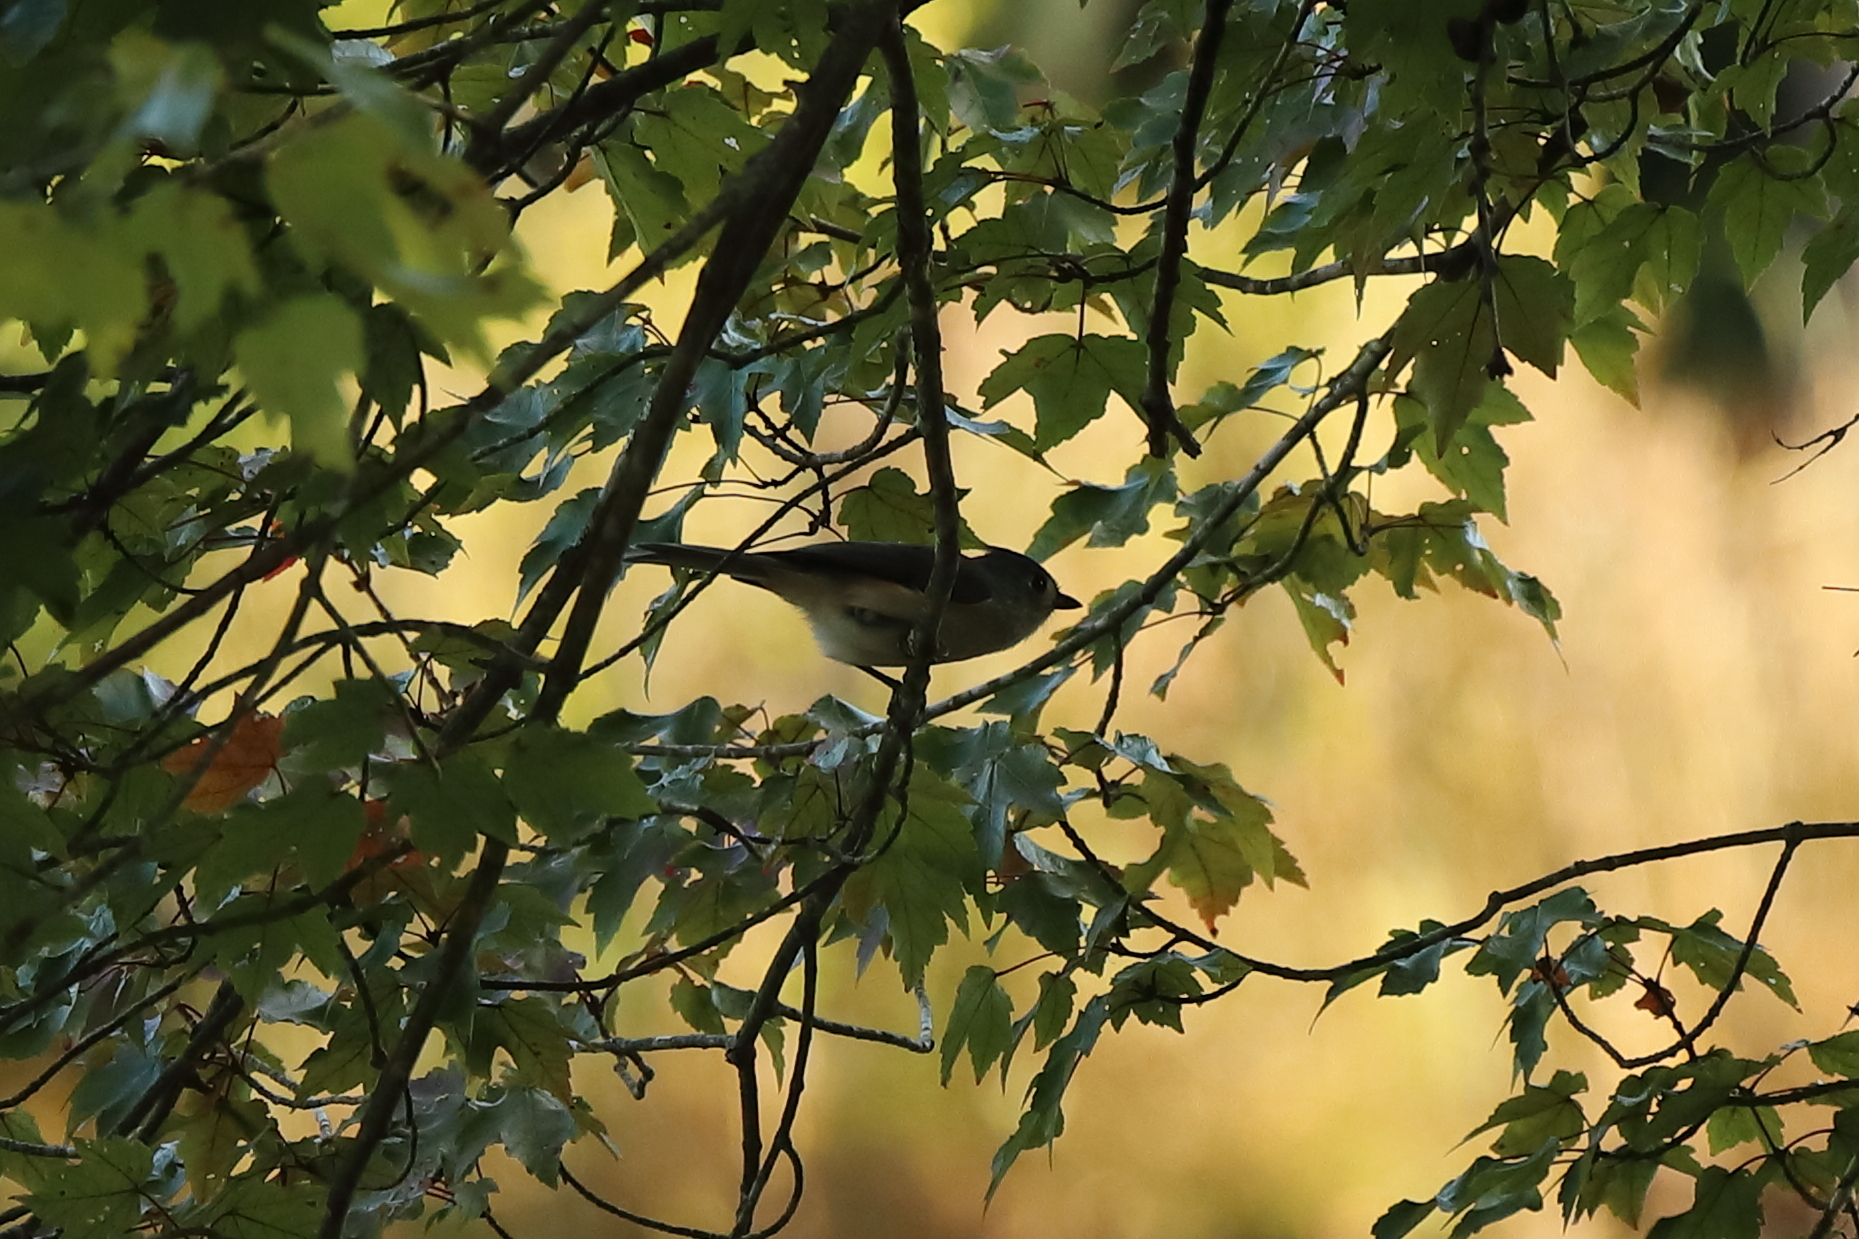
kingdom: Animalia
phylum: Chordata
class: Aves
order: Passeriformes
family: Paridae
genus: Baeolophus
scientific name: Baeolophus bicolor
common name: Tufted titmouse
